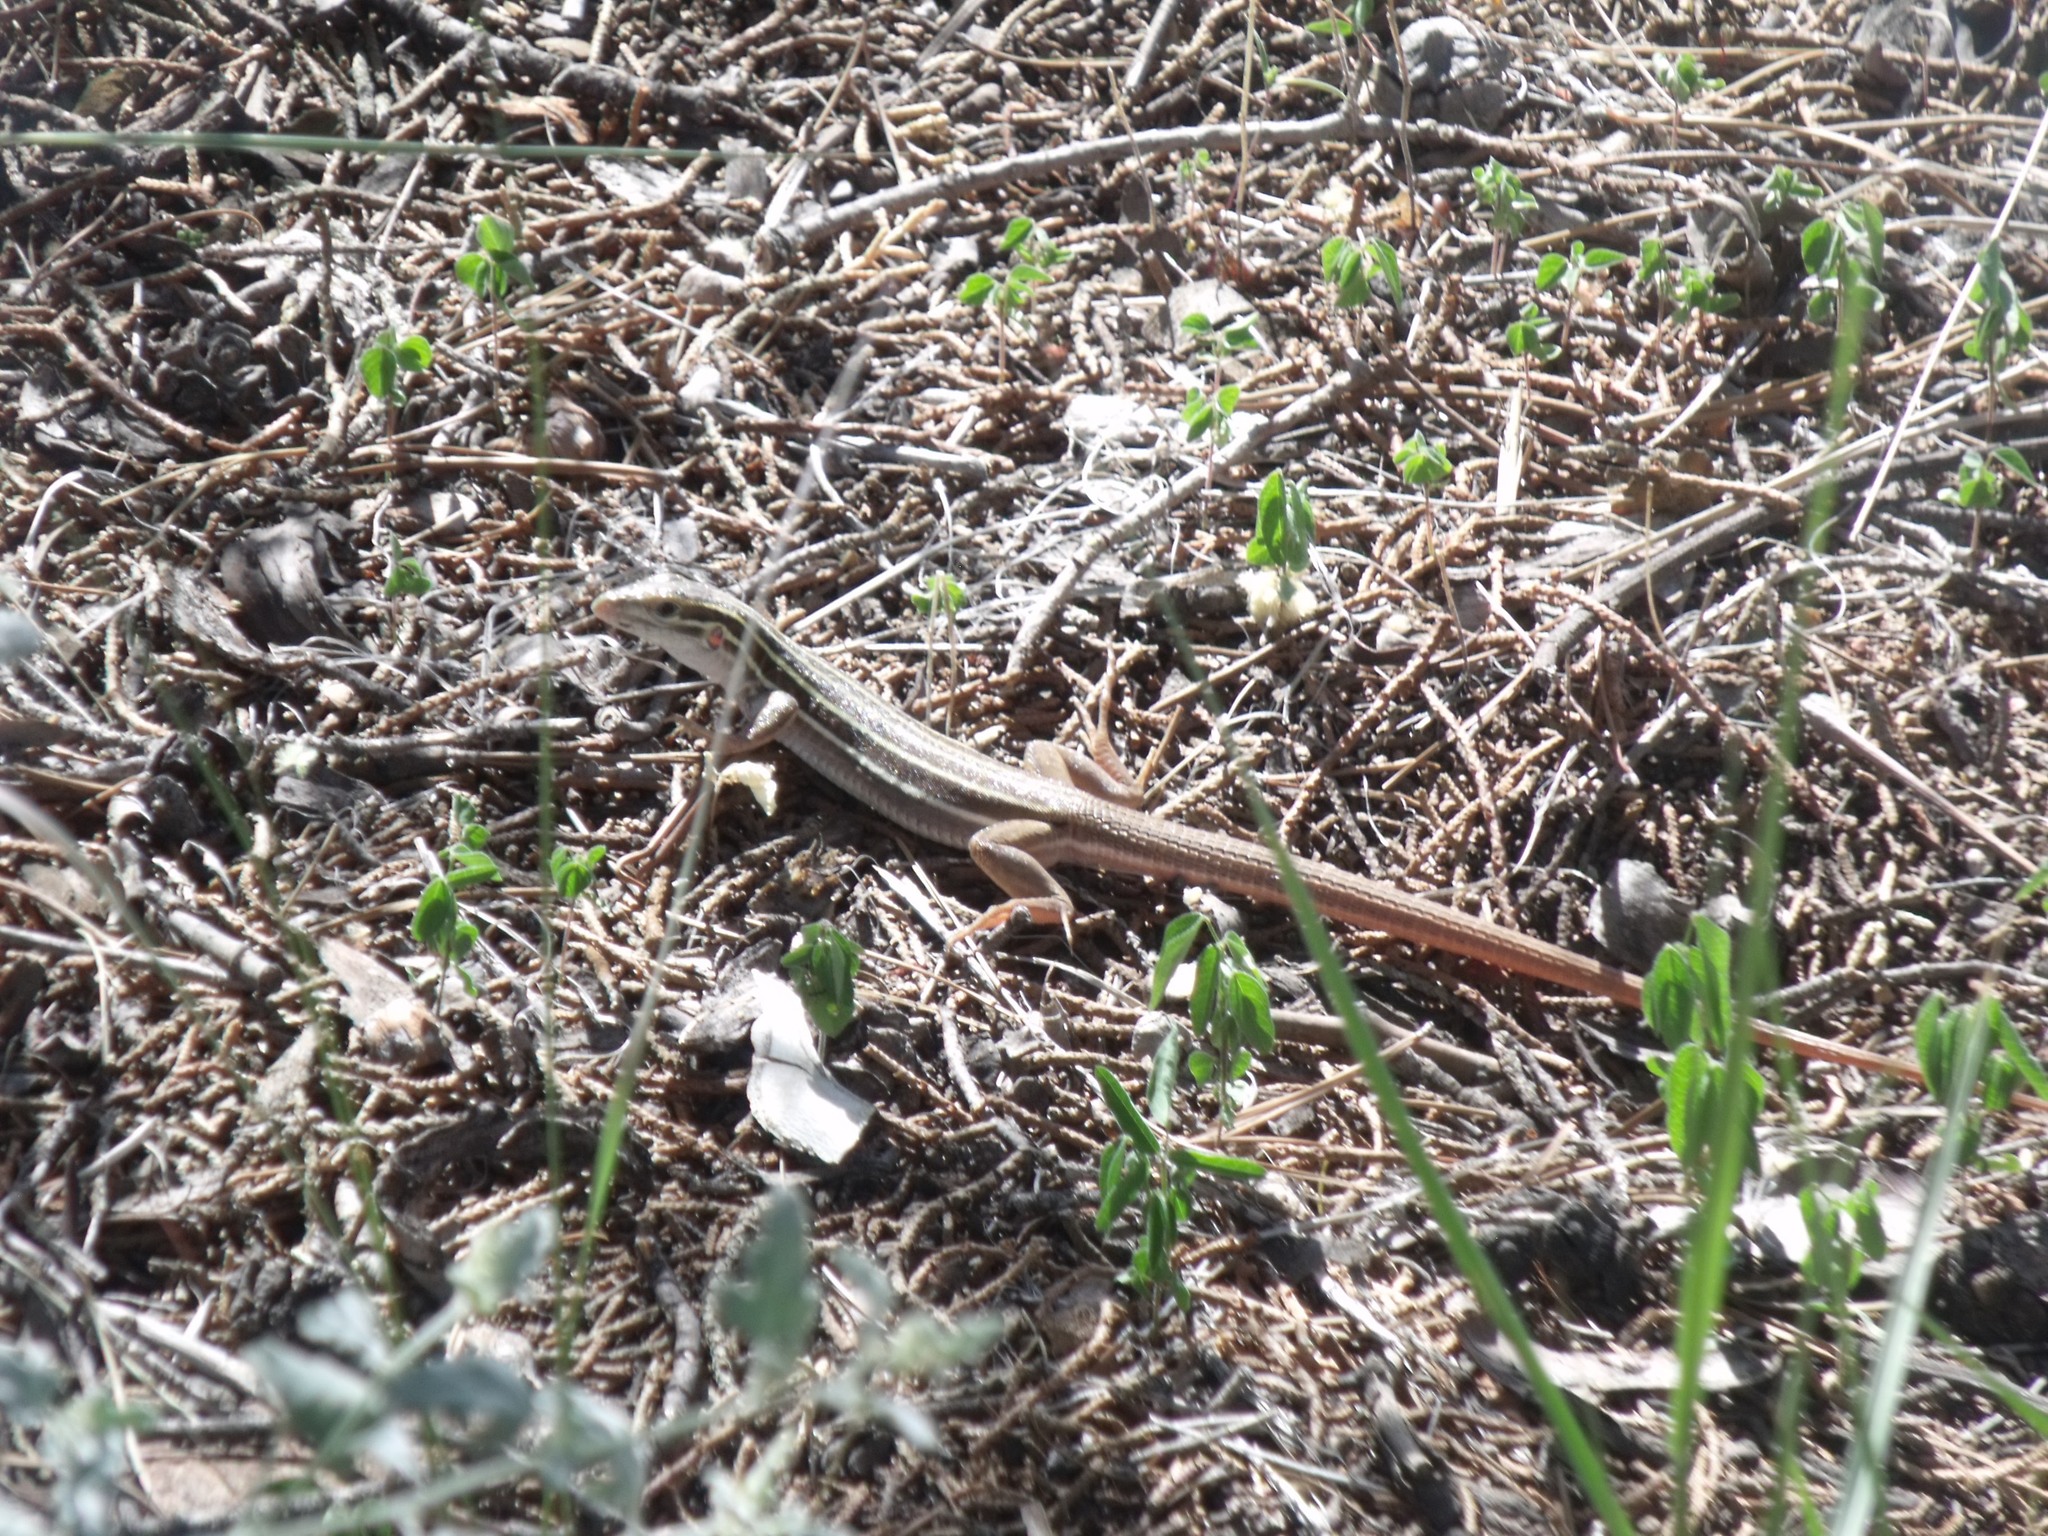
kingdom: Animalia
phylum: Chordata
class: Squamata
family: Teiidae
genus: Aspidoscelis
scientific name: Aspidoscelis sonorae
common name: Sonoran spotted whiptail
